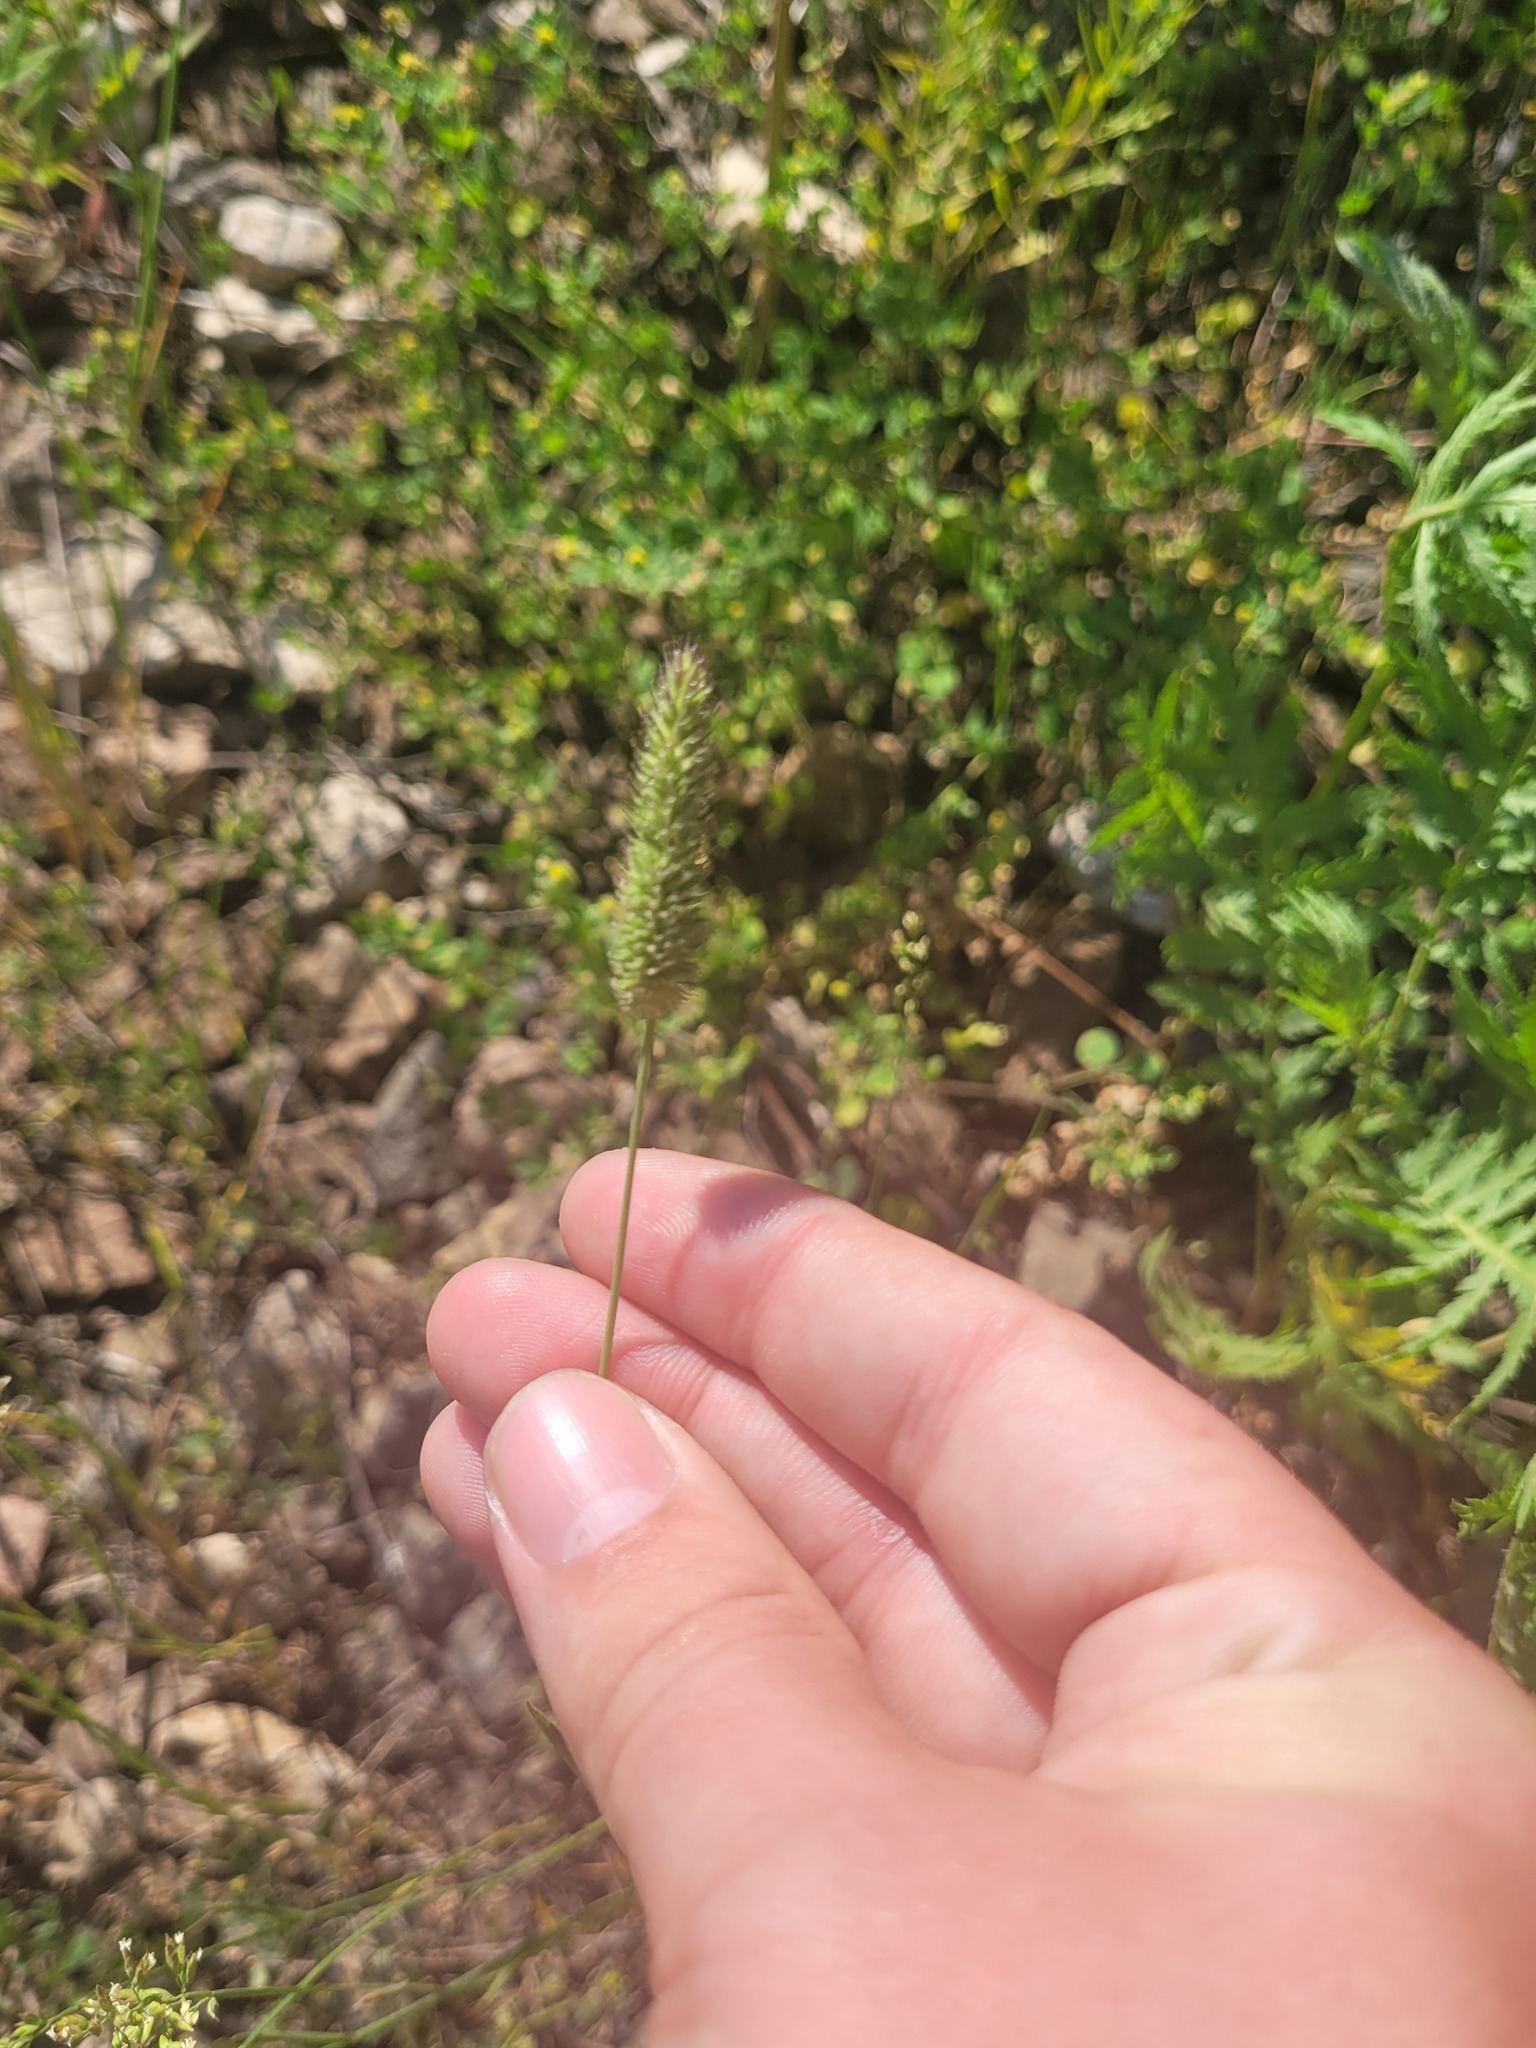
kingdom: Plantae
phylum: Tracheophyta
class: Liliopsida
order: Poales
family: Poaceae
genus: Phleum
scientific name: Phleum pratense
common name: Timothy grass
